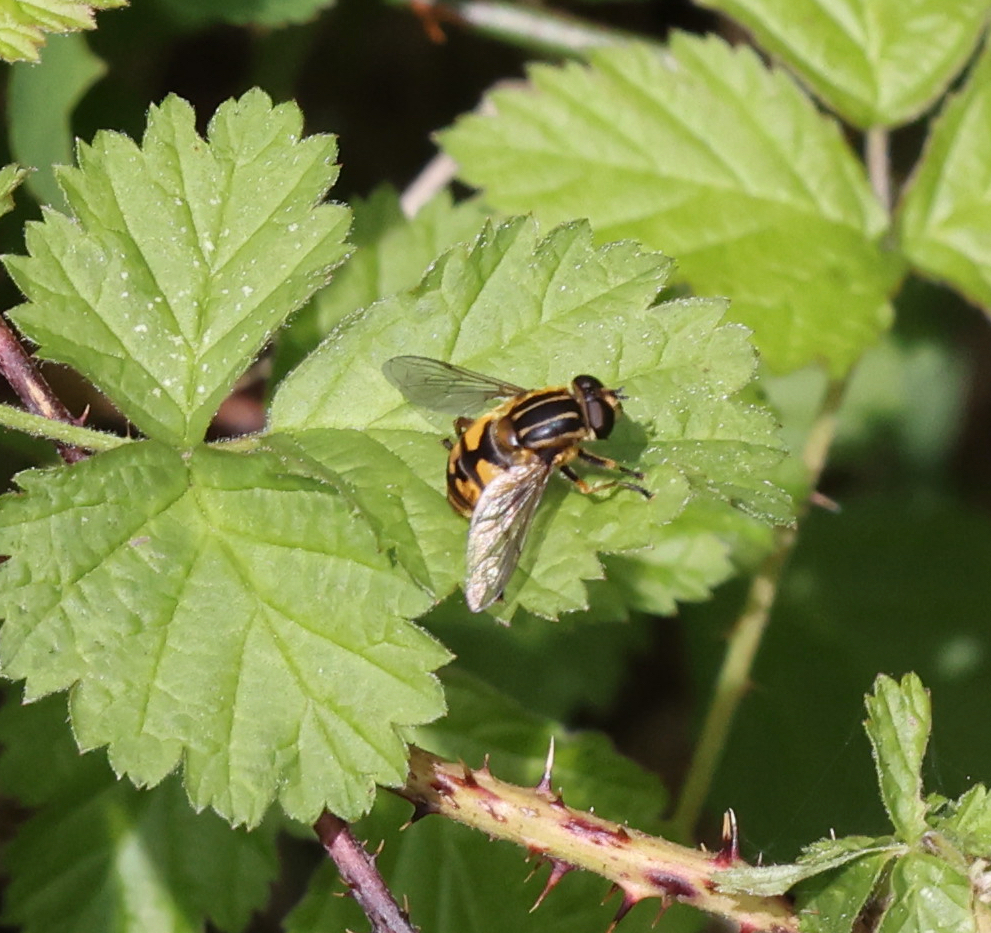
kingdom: Animalia
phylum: Arthropoda
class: Insecta
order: Diptera
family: Syrphidae
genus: Helophilus
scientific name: Helophilus pendulus
